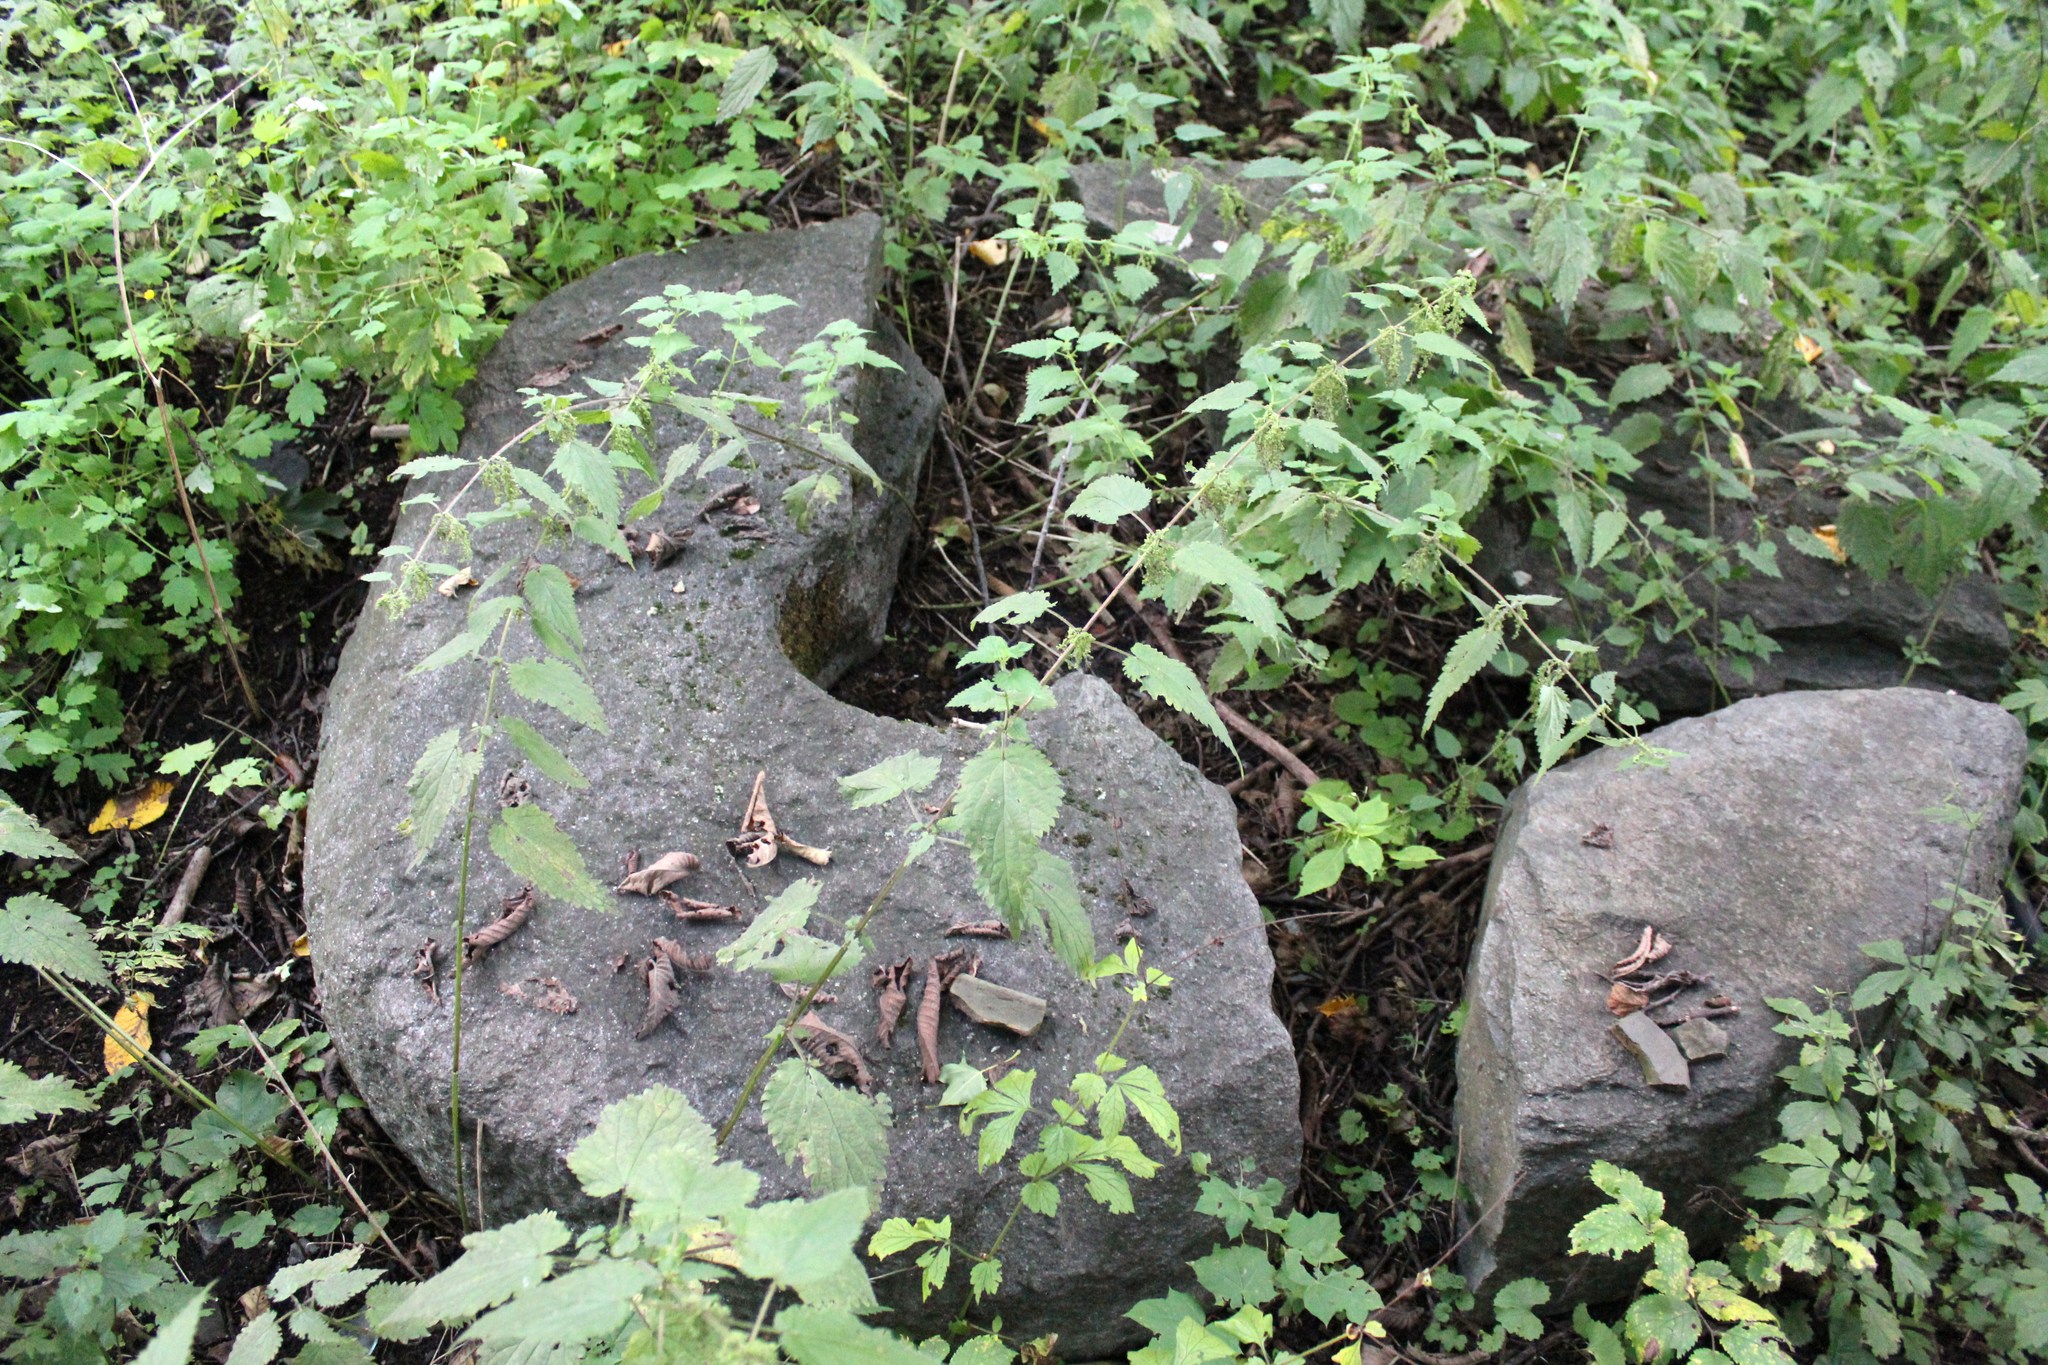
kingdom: Plantae
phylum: Tracheophyta
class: Magnoliopsida
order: Rosales
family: Urticaceae
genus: Urtica
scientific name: Urtica dioica
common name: Common nettle
